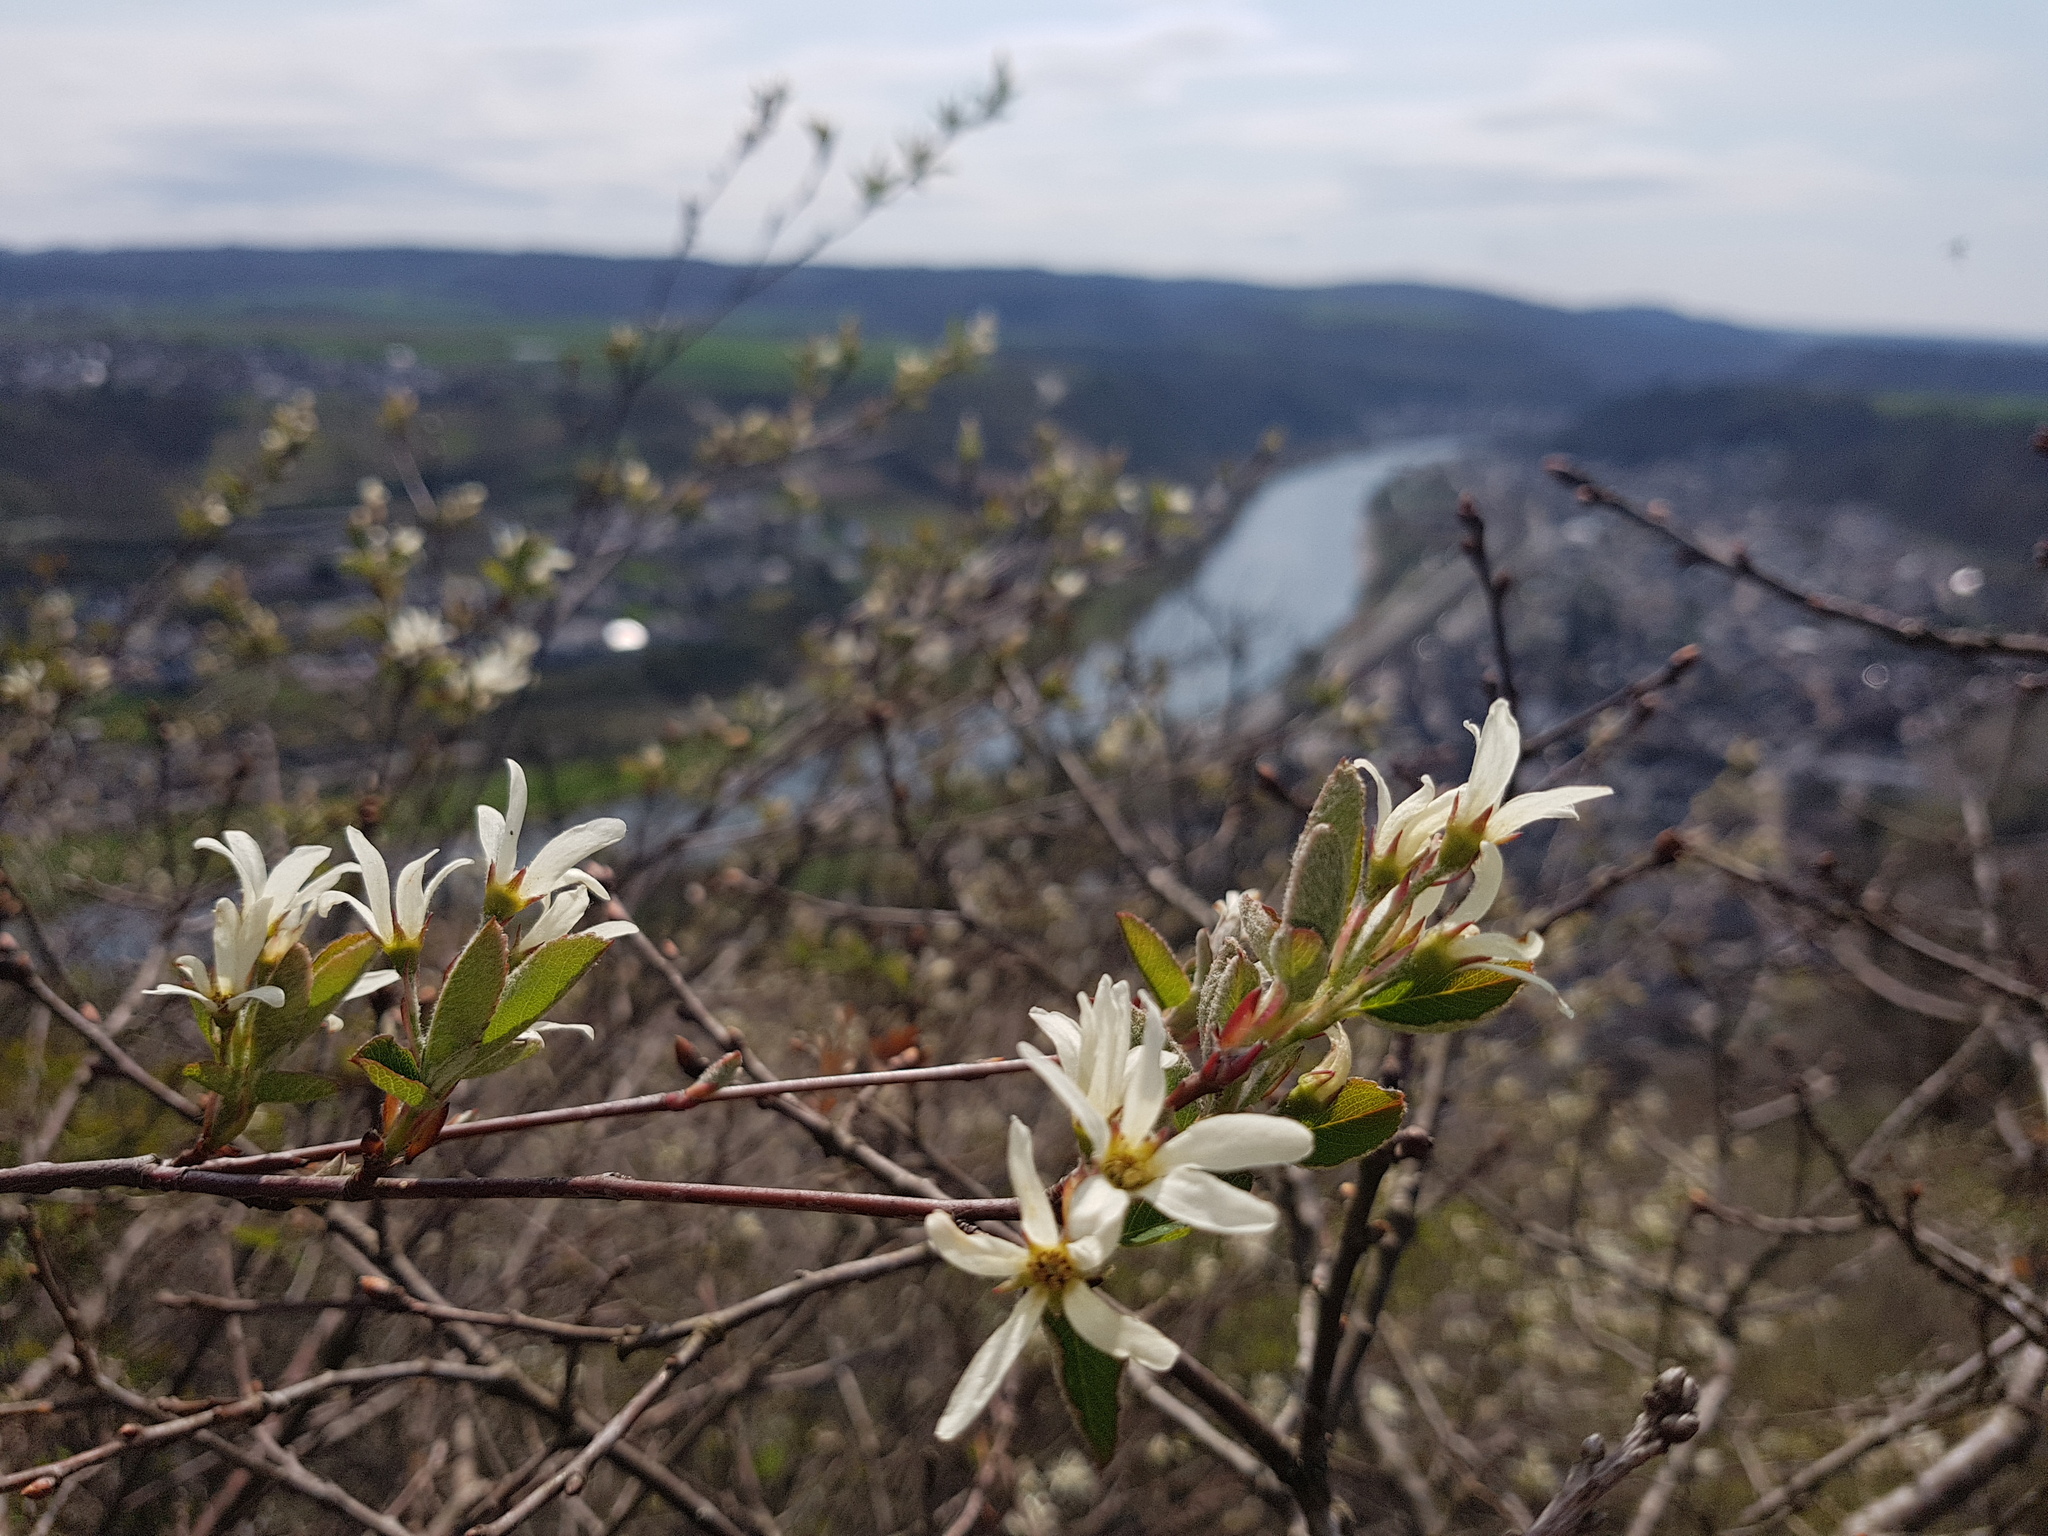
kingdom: Plantae
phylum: Tracheophyta
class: Magnoliopsida
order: Rosales
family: Rosaceae
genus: Amelanchier
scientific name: Amelanchier ovalis
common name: Serviceberry
